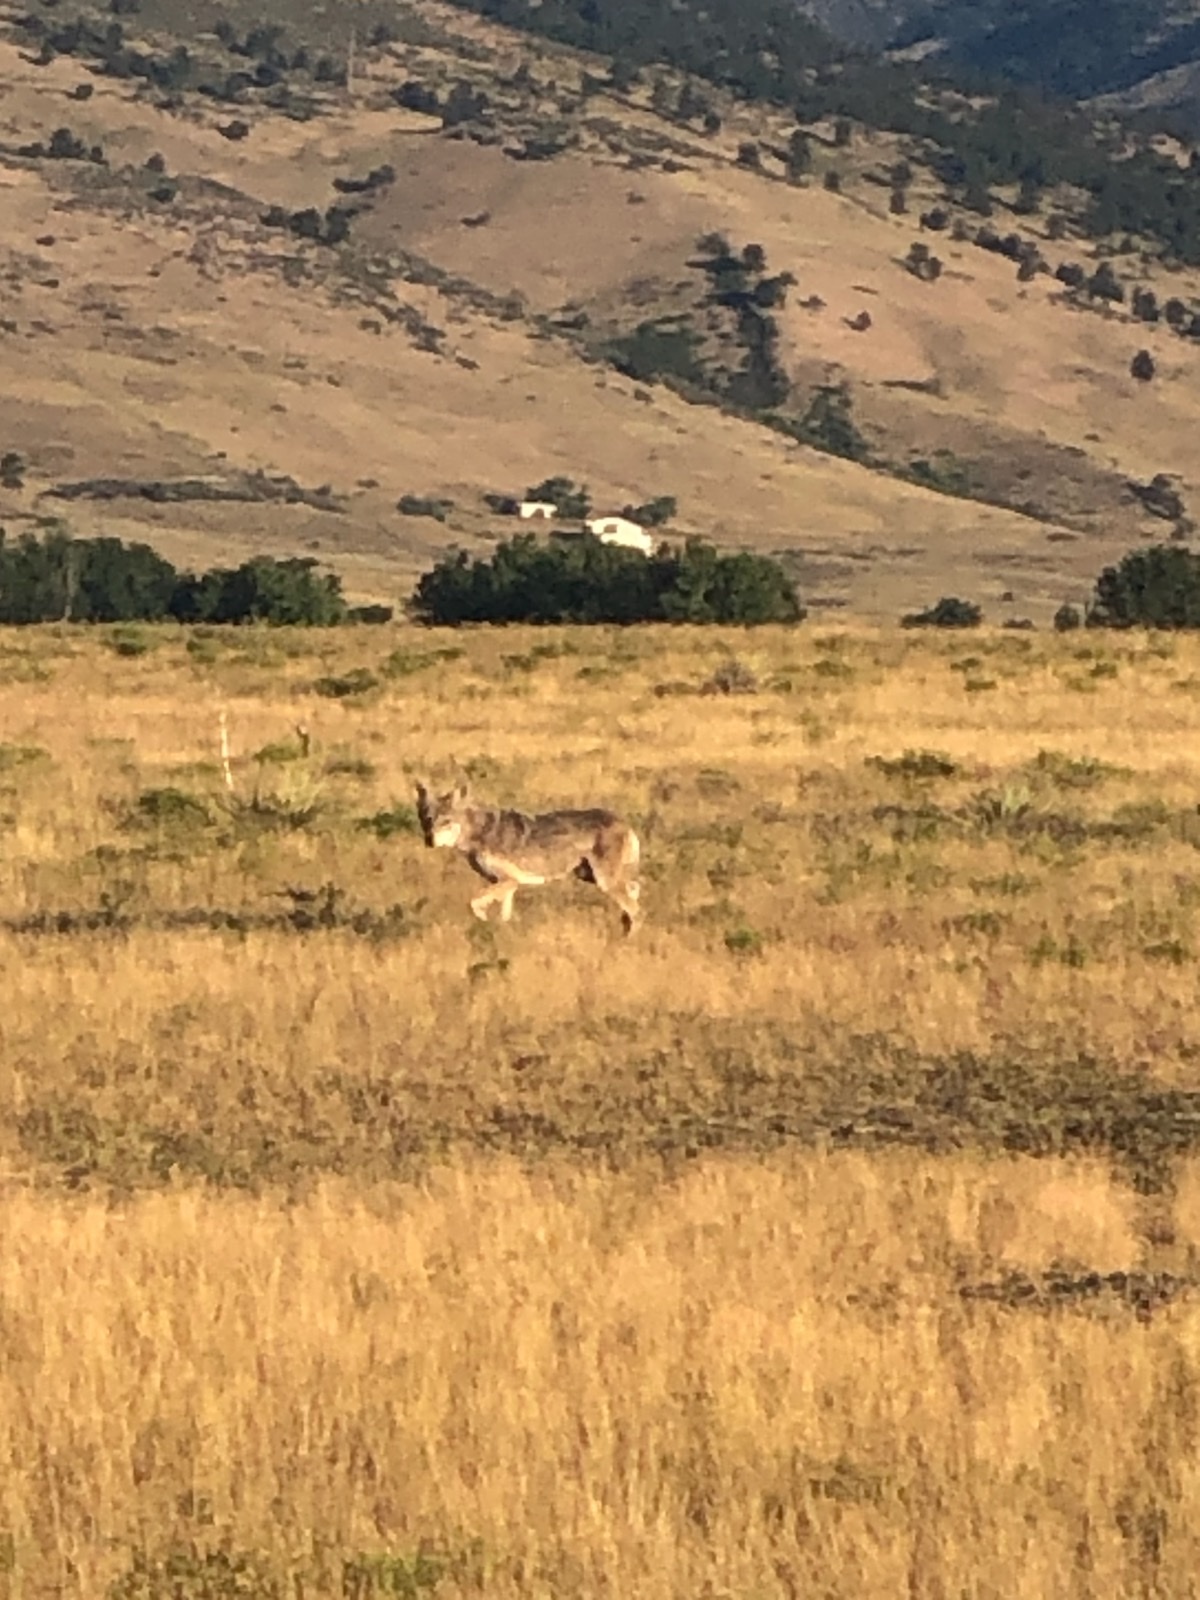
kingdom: Animalia
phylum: Chordata
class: Mammalia
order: Carnivora
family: Canidae
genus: Canis
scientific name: Canis latrans
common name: Coyote
